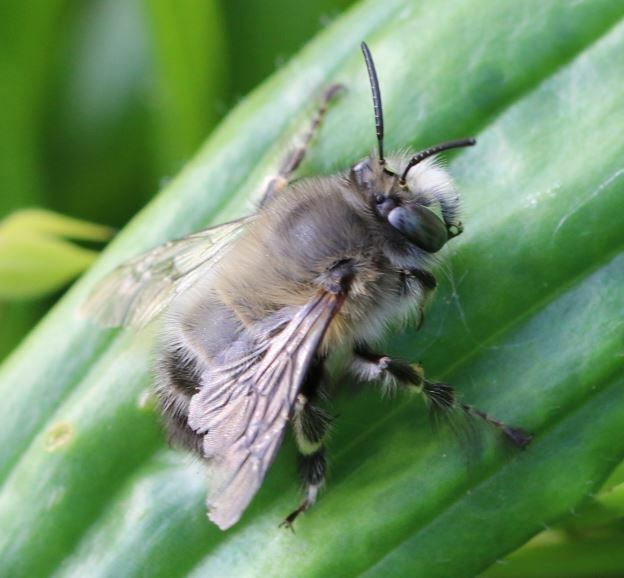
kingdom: Animalia
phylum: Arthropoda
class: Insecta
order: Hymenoptera
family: Apidae
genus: Anthophora
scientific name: Anthophora plumipes
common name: Hairy-footed flower bee
